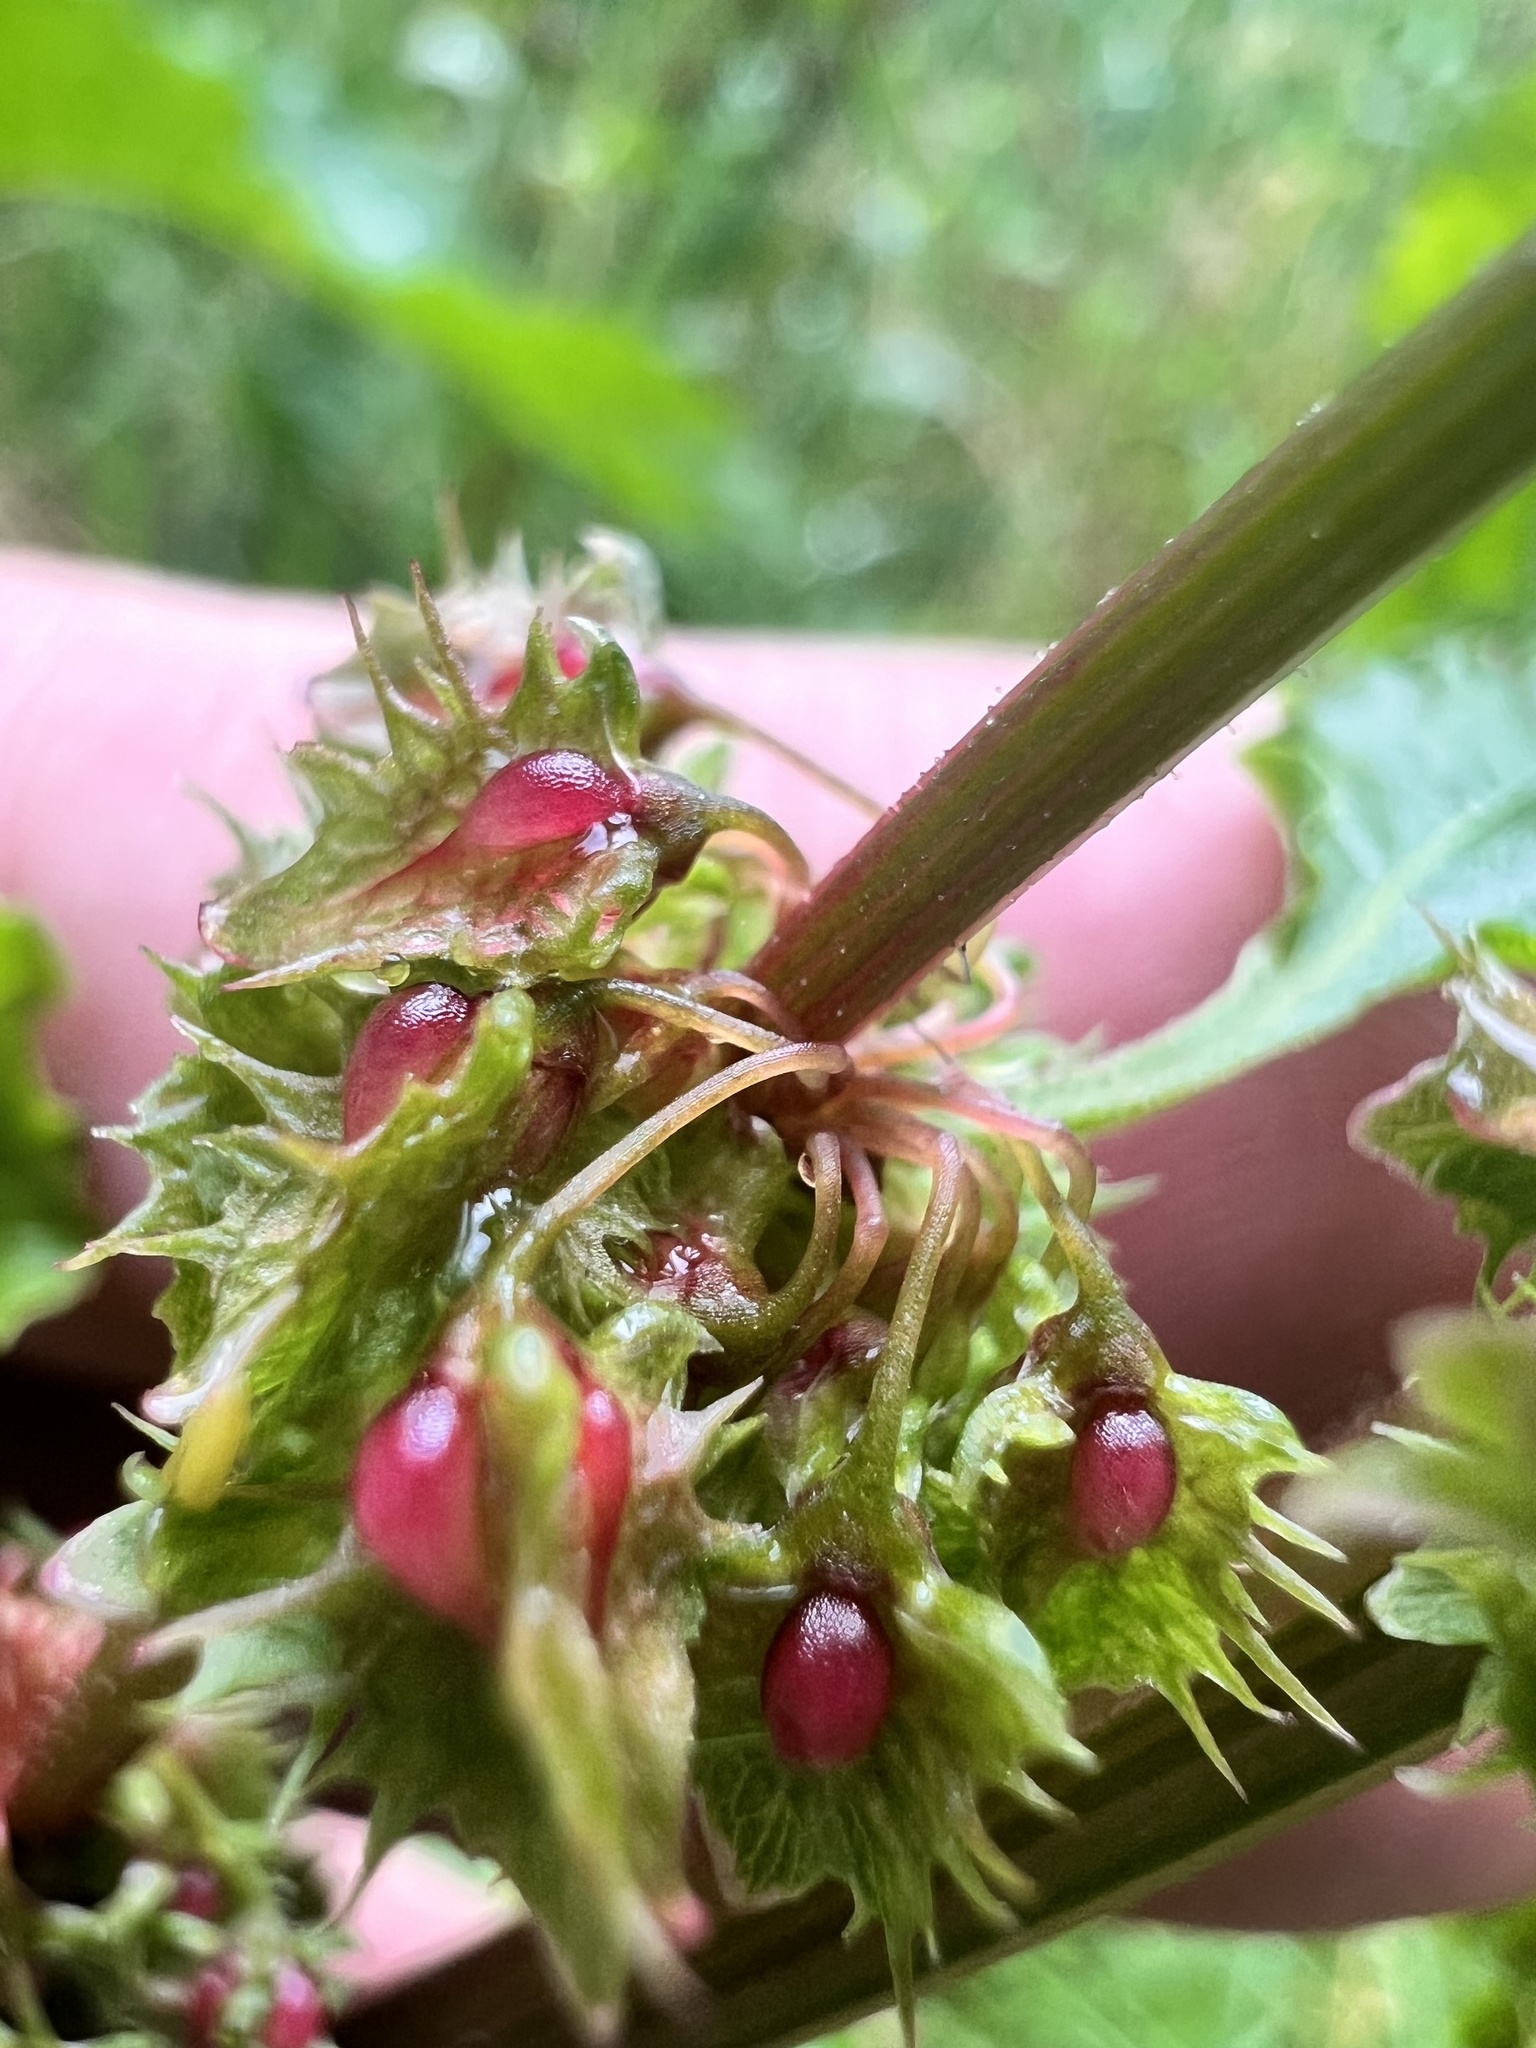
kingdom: Plantae
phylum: Tracheophyta
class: Magnoliopsida
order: Caryophyllales
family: Polygonaceae
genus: Rumex
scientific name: Rumex obtusifolius
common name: Bitter dock
